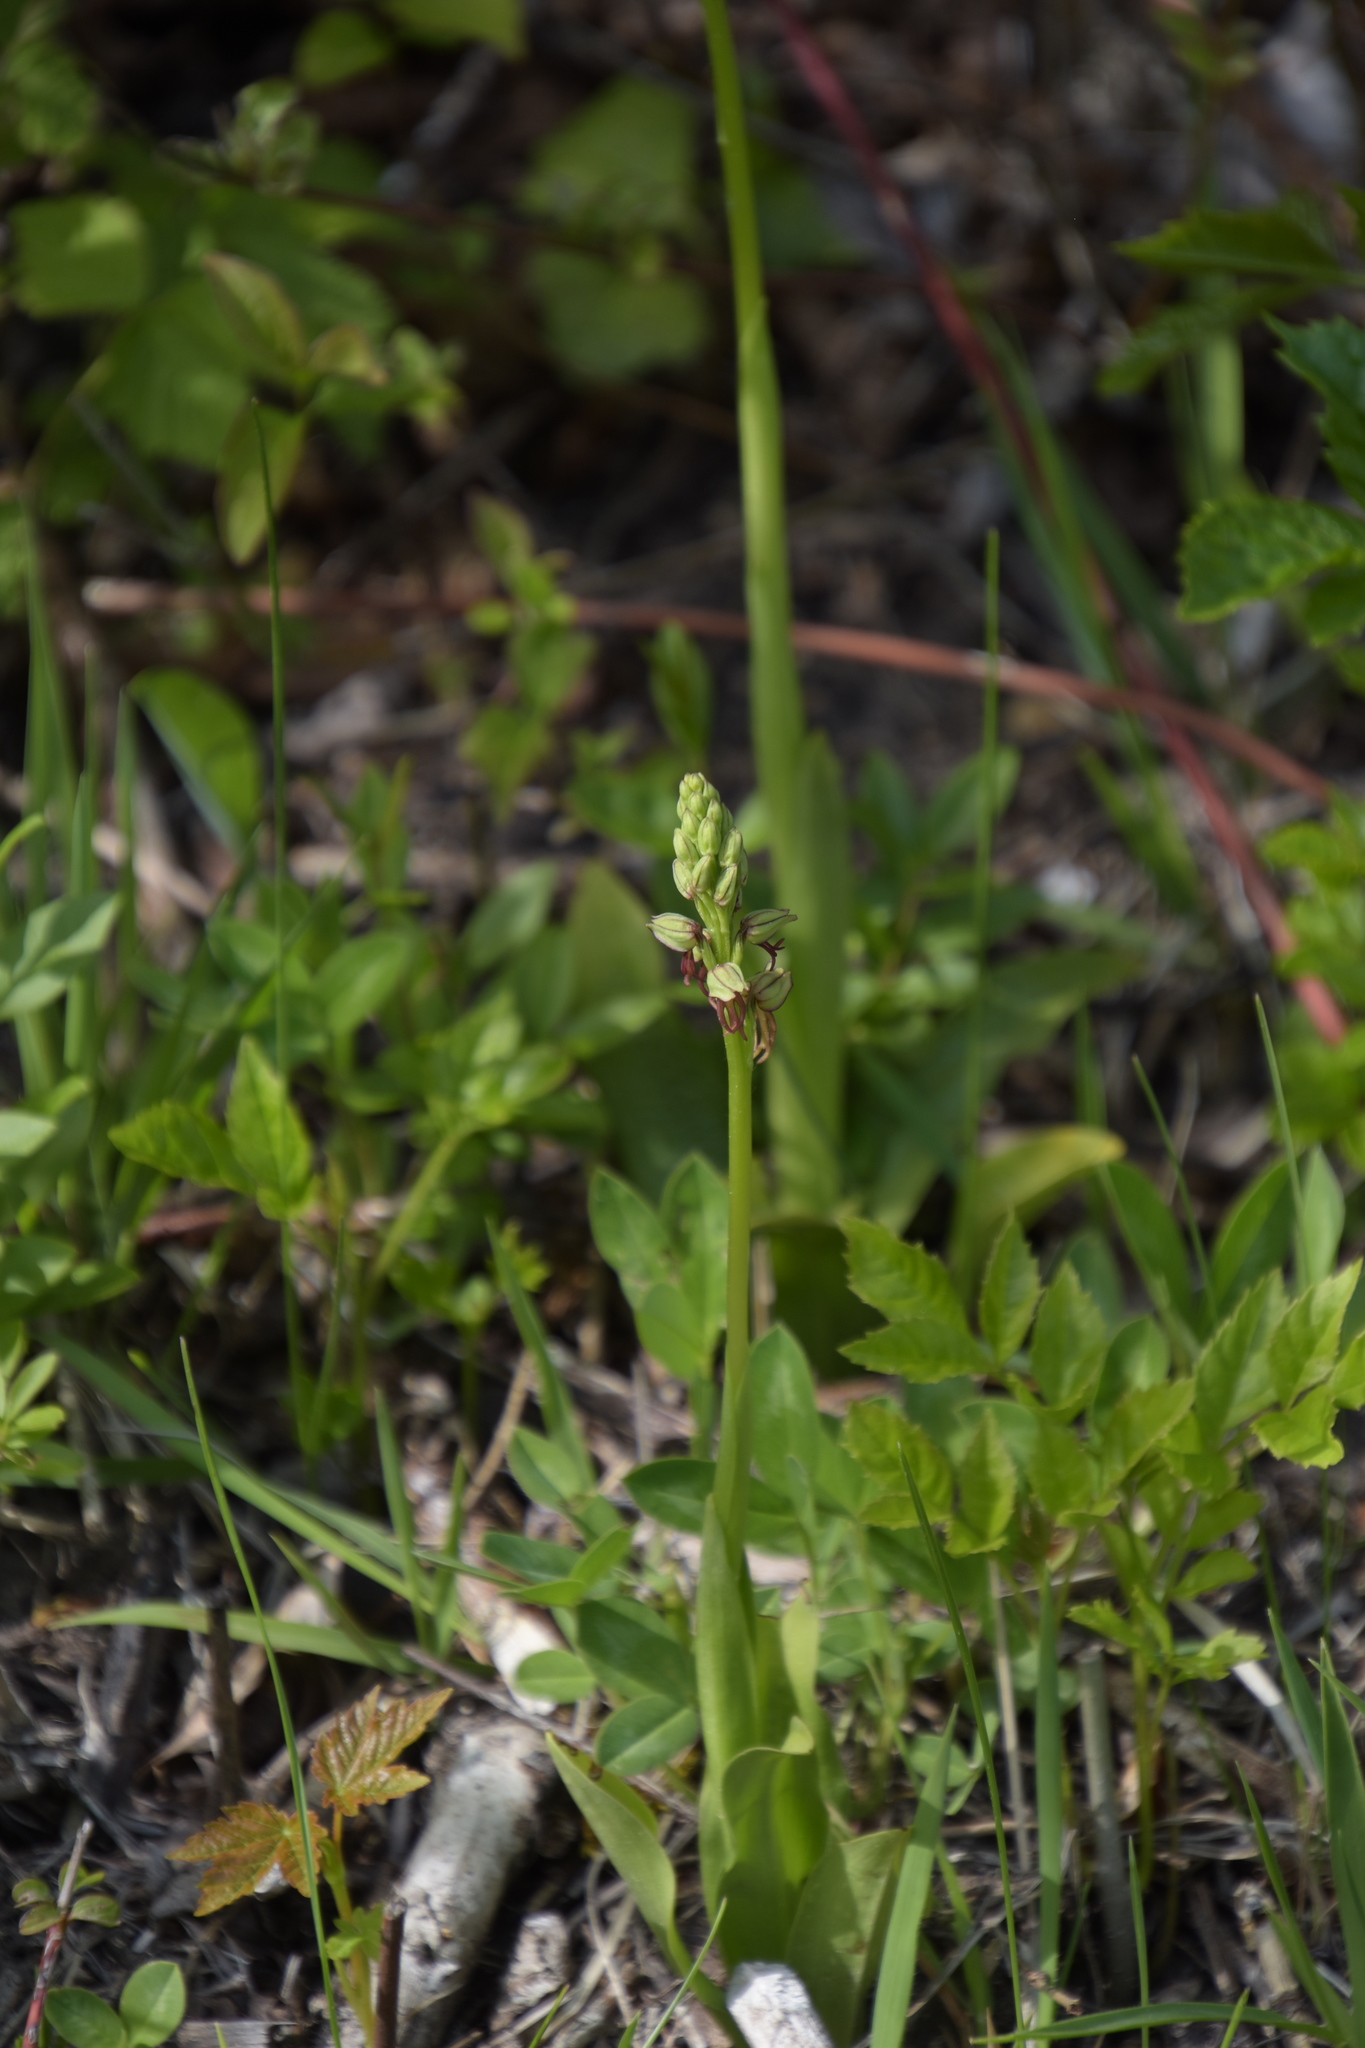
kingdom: Plantae
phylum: Tracheophyta
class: Liliopsida
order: Asparagales
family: Orchidaceae
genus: Orchis
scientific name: Orchis anthropophora
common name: Man orchid
